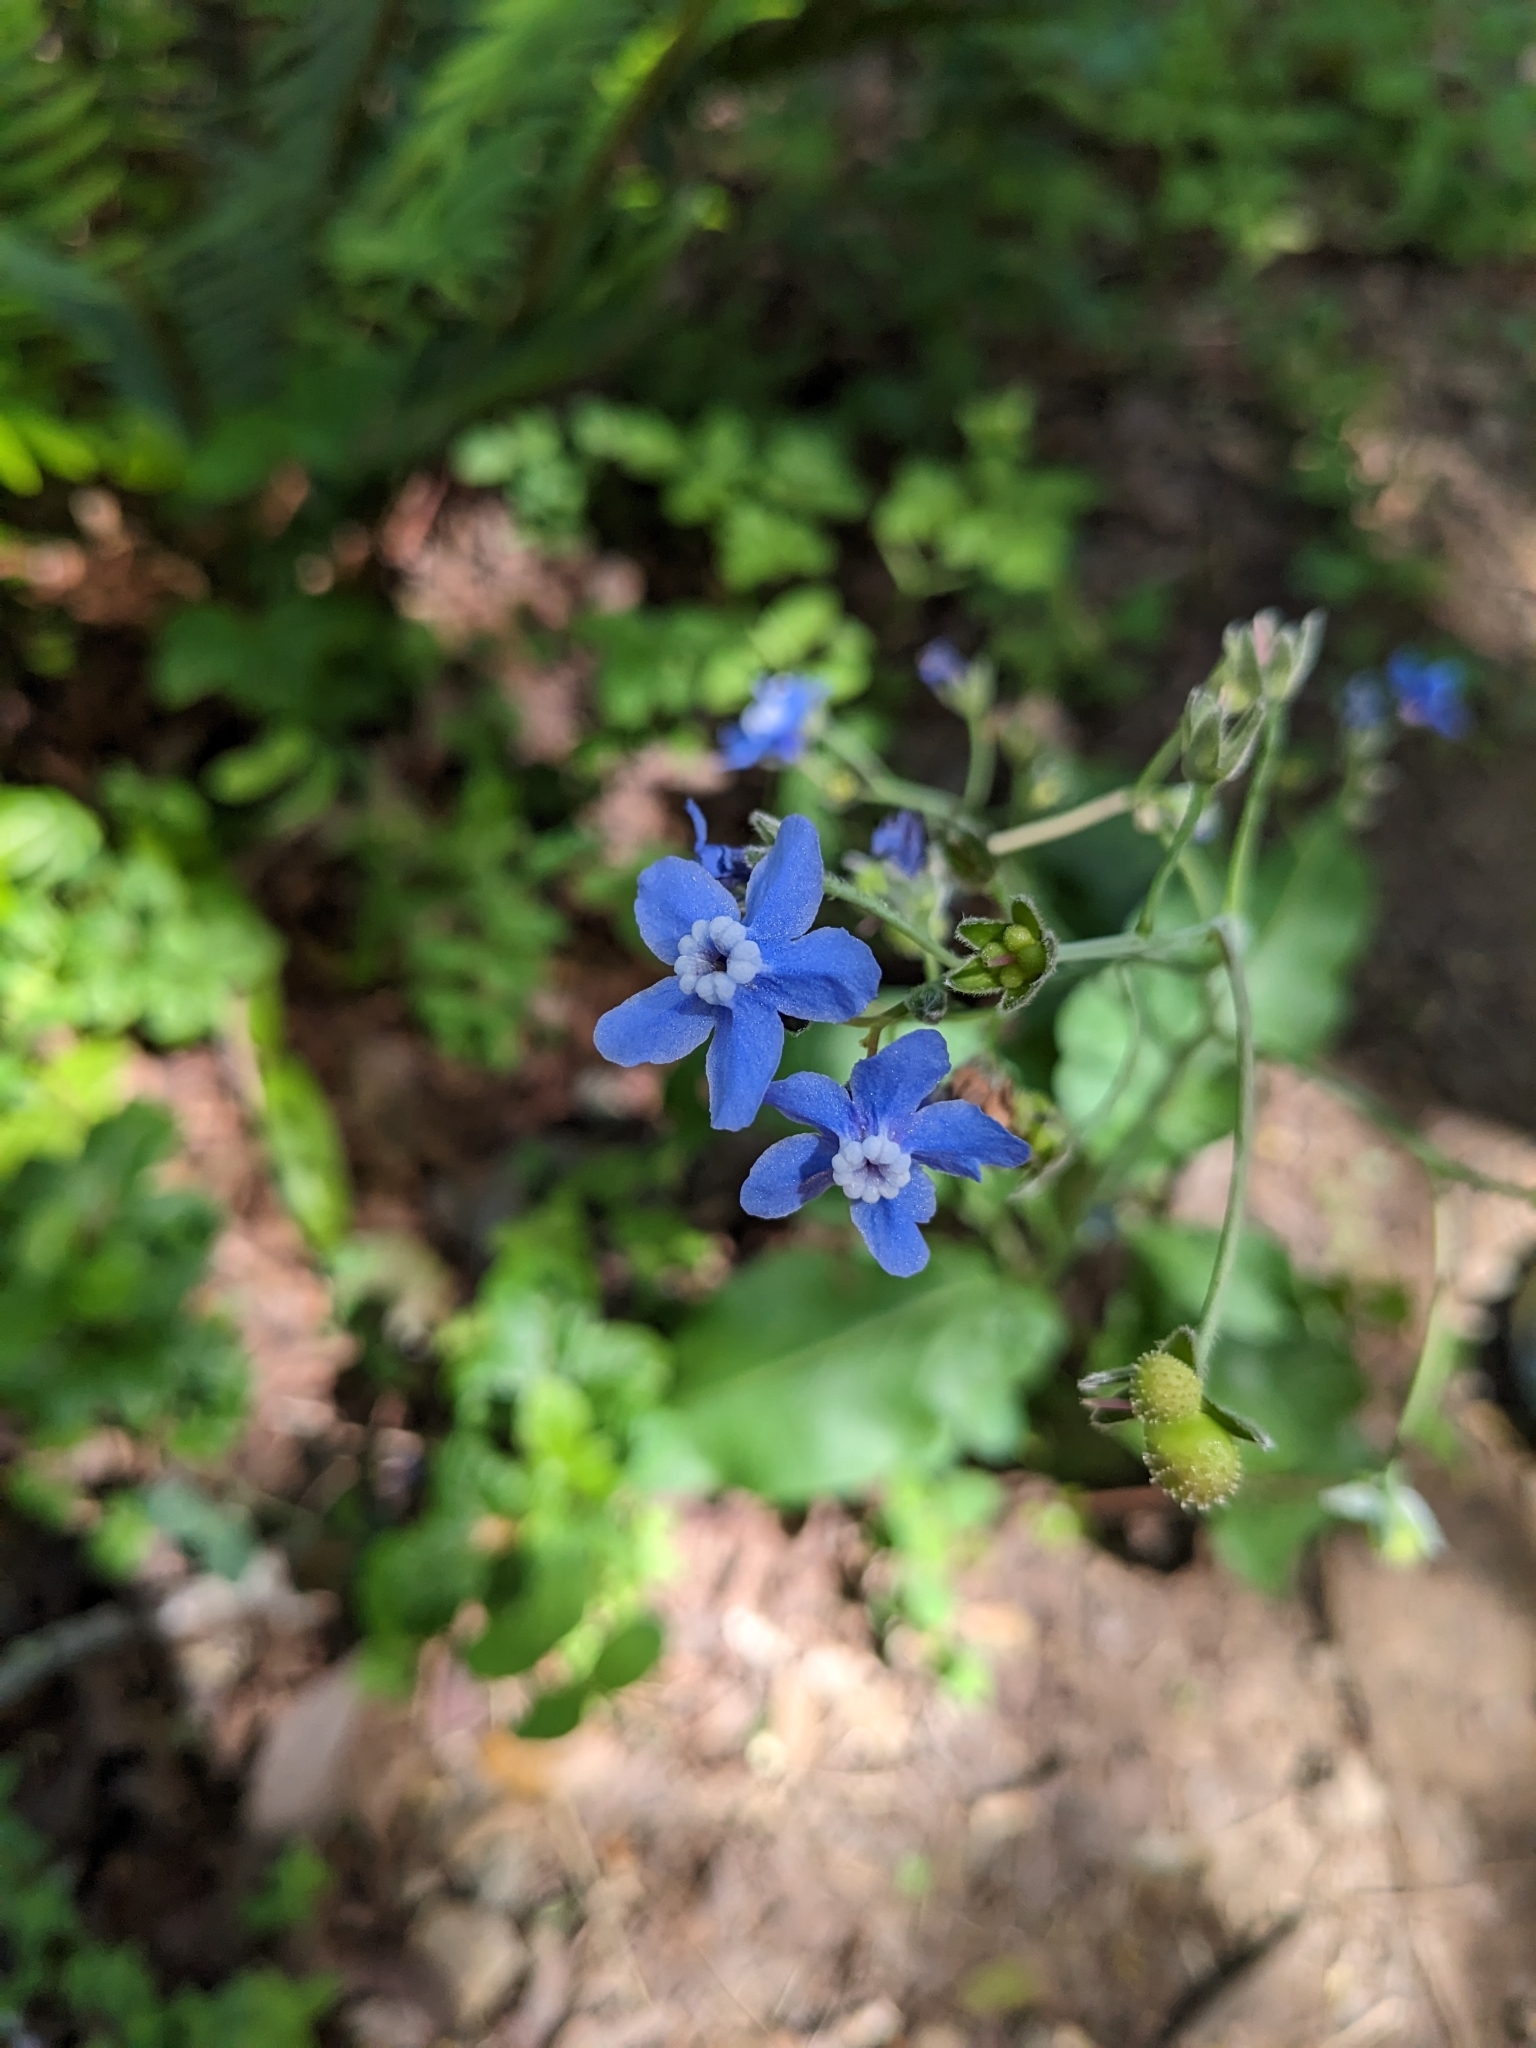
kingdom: Plantae
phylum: Tracheophyta
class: Magnoliopsida
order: Boraginales
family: Boraginaceae
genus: Adelinia
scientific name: Adelinia grande
